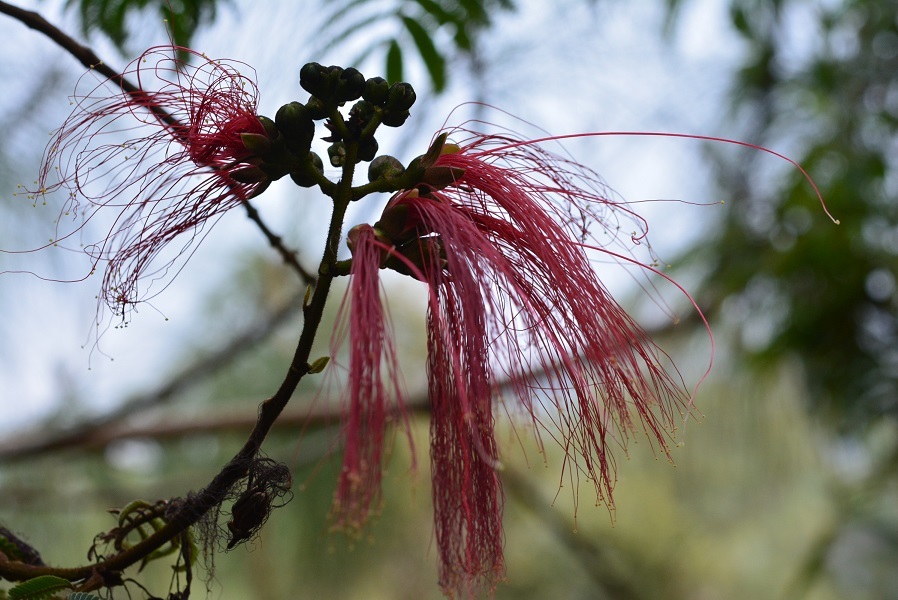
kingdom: Plantae
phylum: Tracheophyta
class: Magnoliopsida
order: Fabales
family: Fabaceae
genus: Calliandra
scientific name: Calliandra houstoniana
